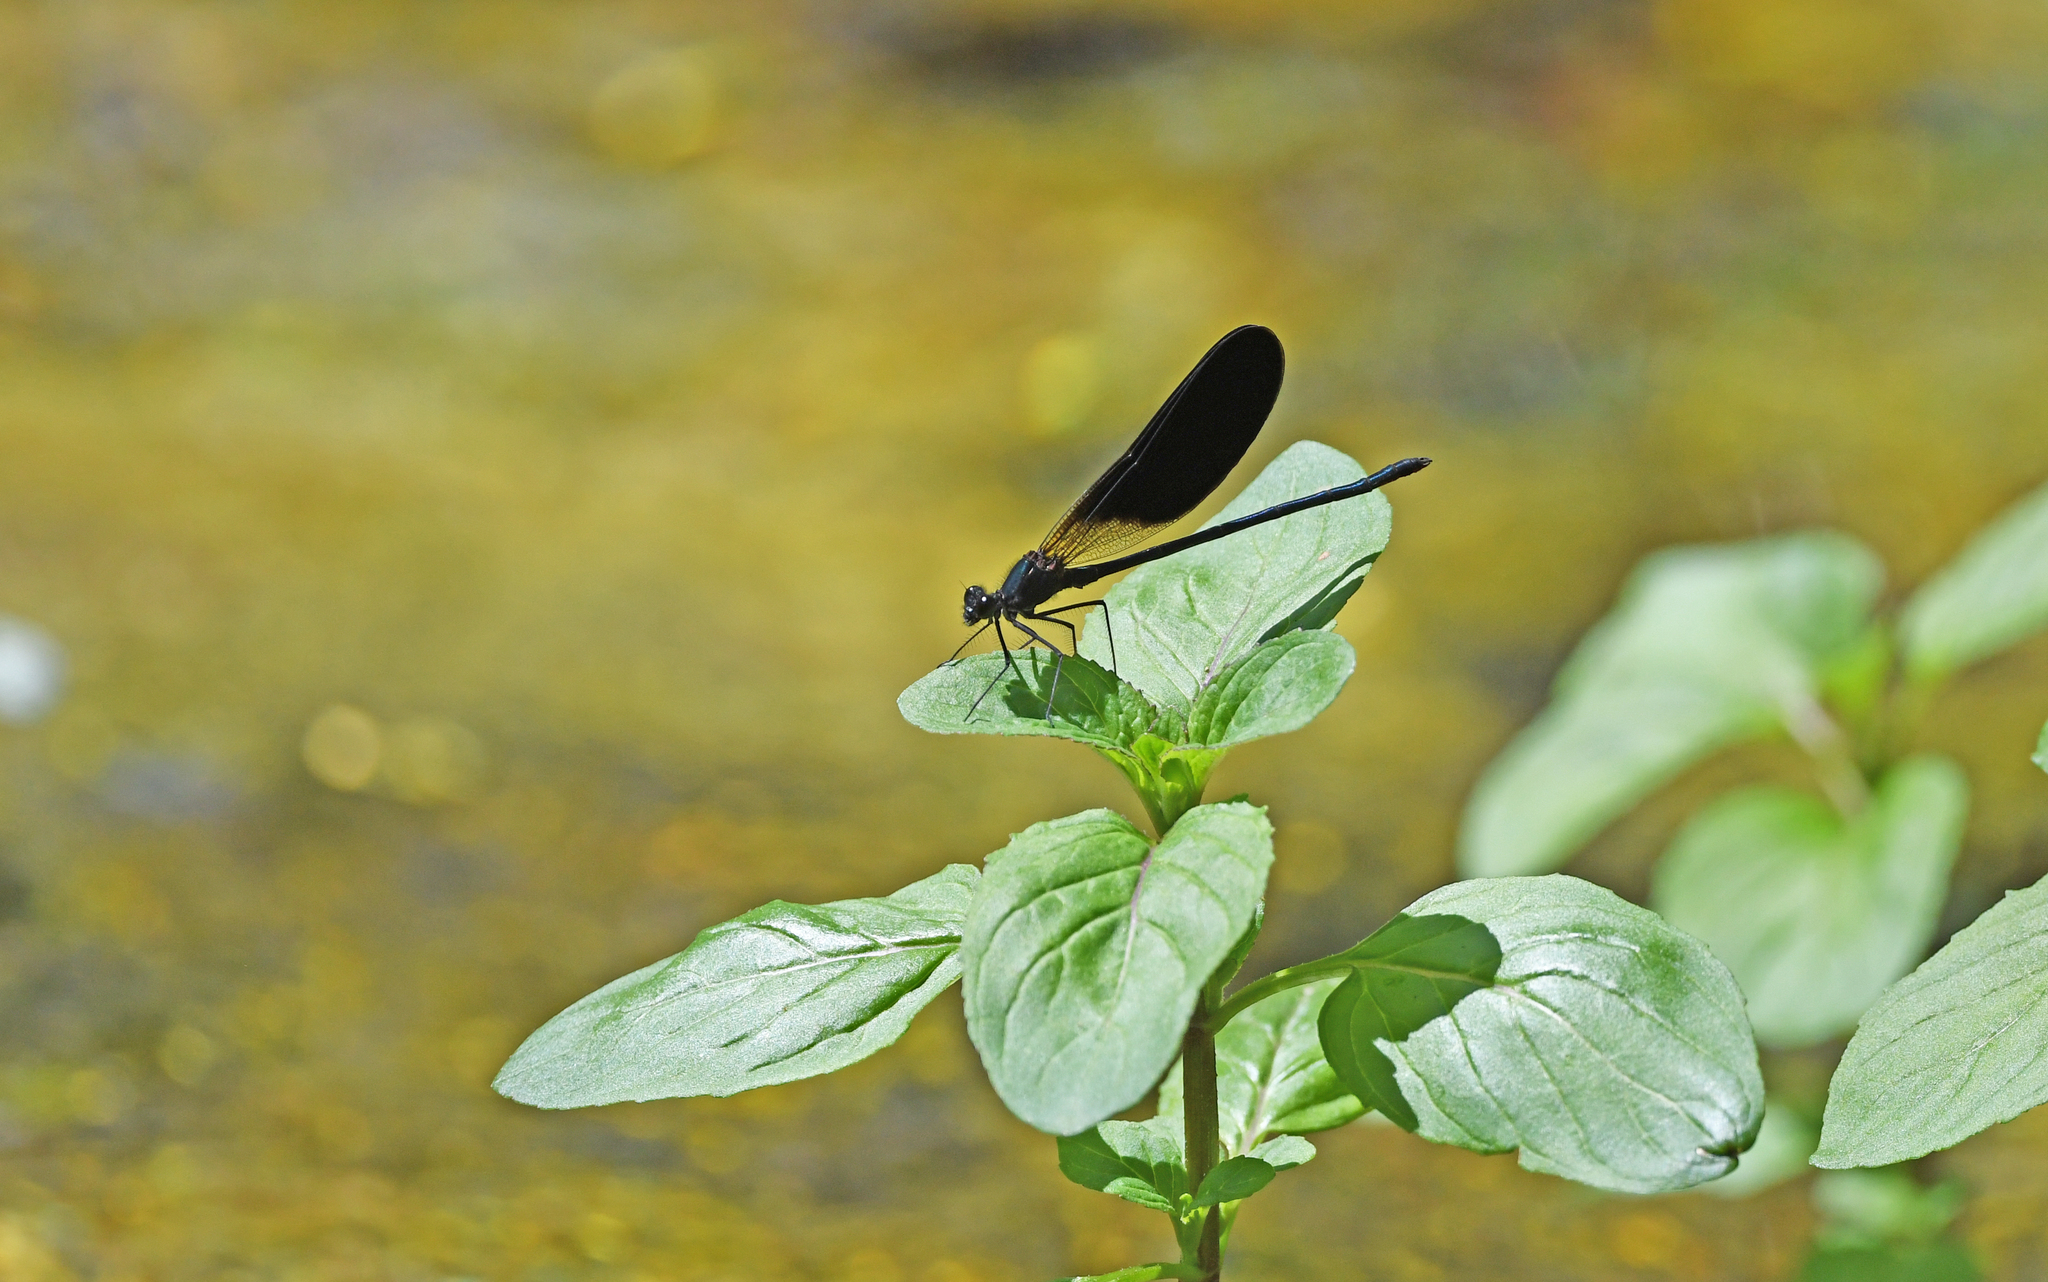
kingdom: Animalia
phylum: Arthropoda
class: Insecta
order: Odonata
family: Calopterygidae
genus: Calopteryx
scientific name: Calopteryx haemorrhoidalis
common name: Copper demoiselle
